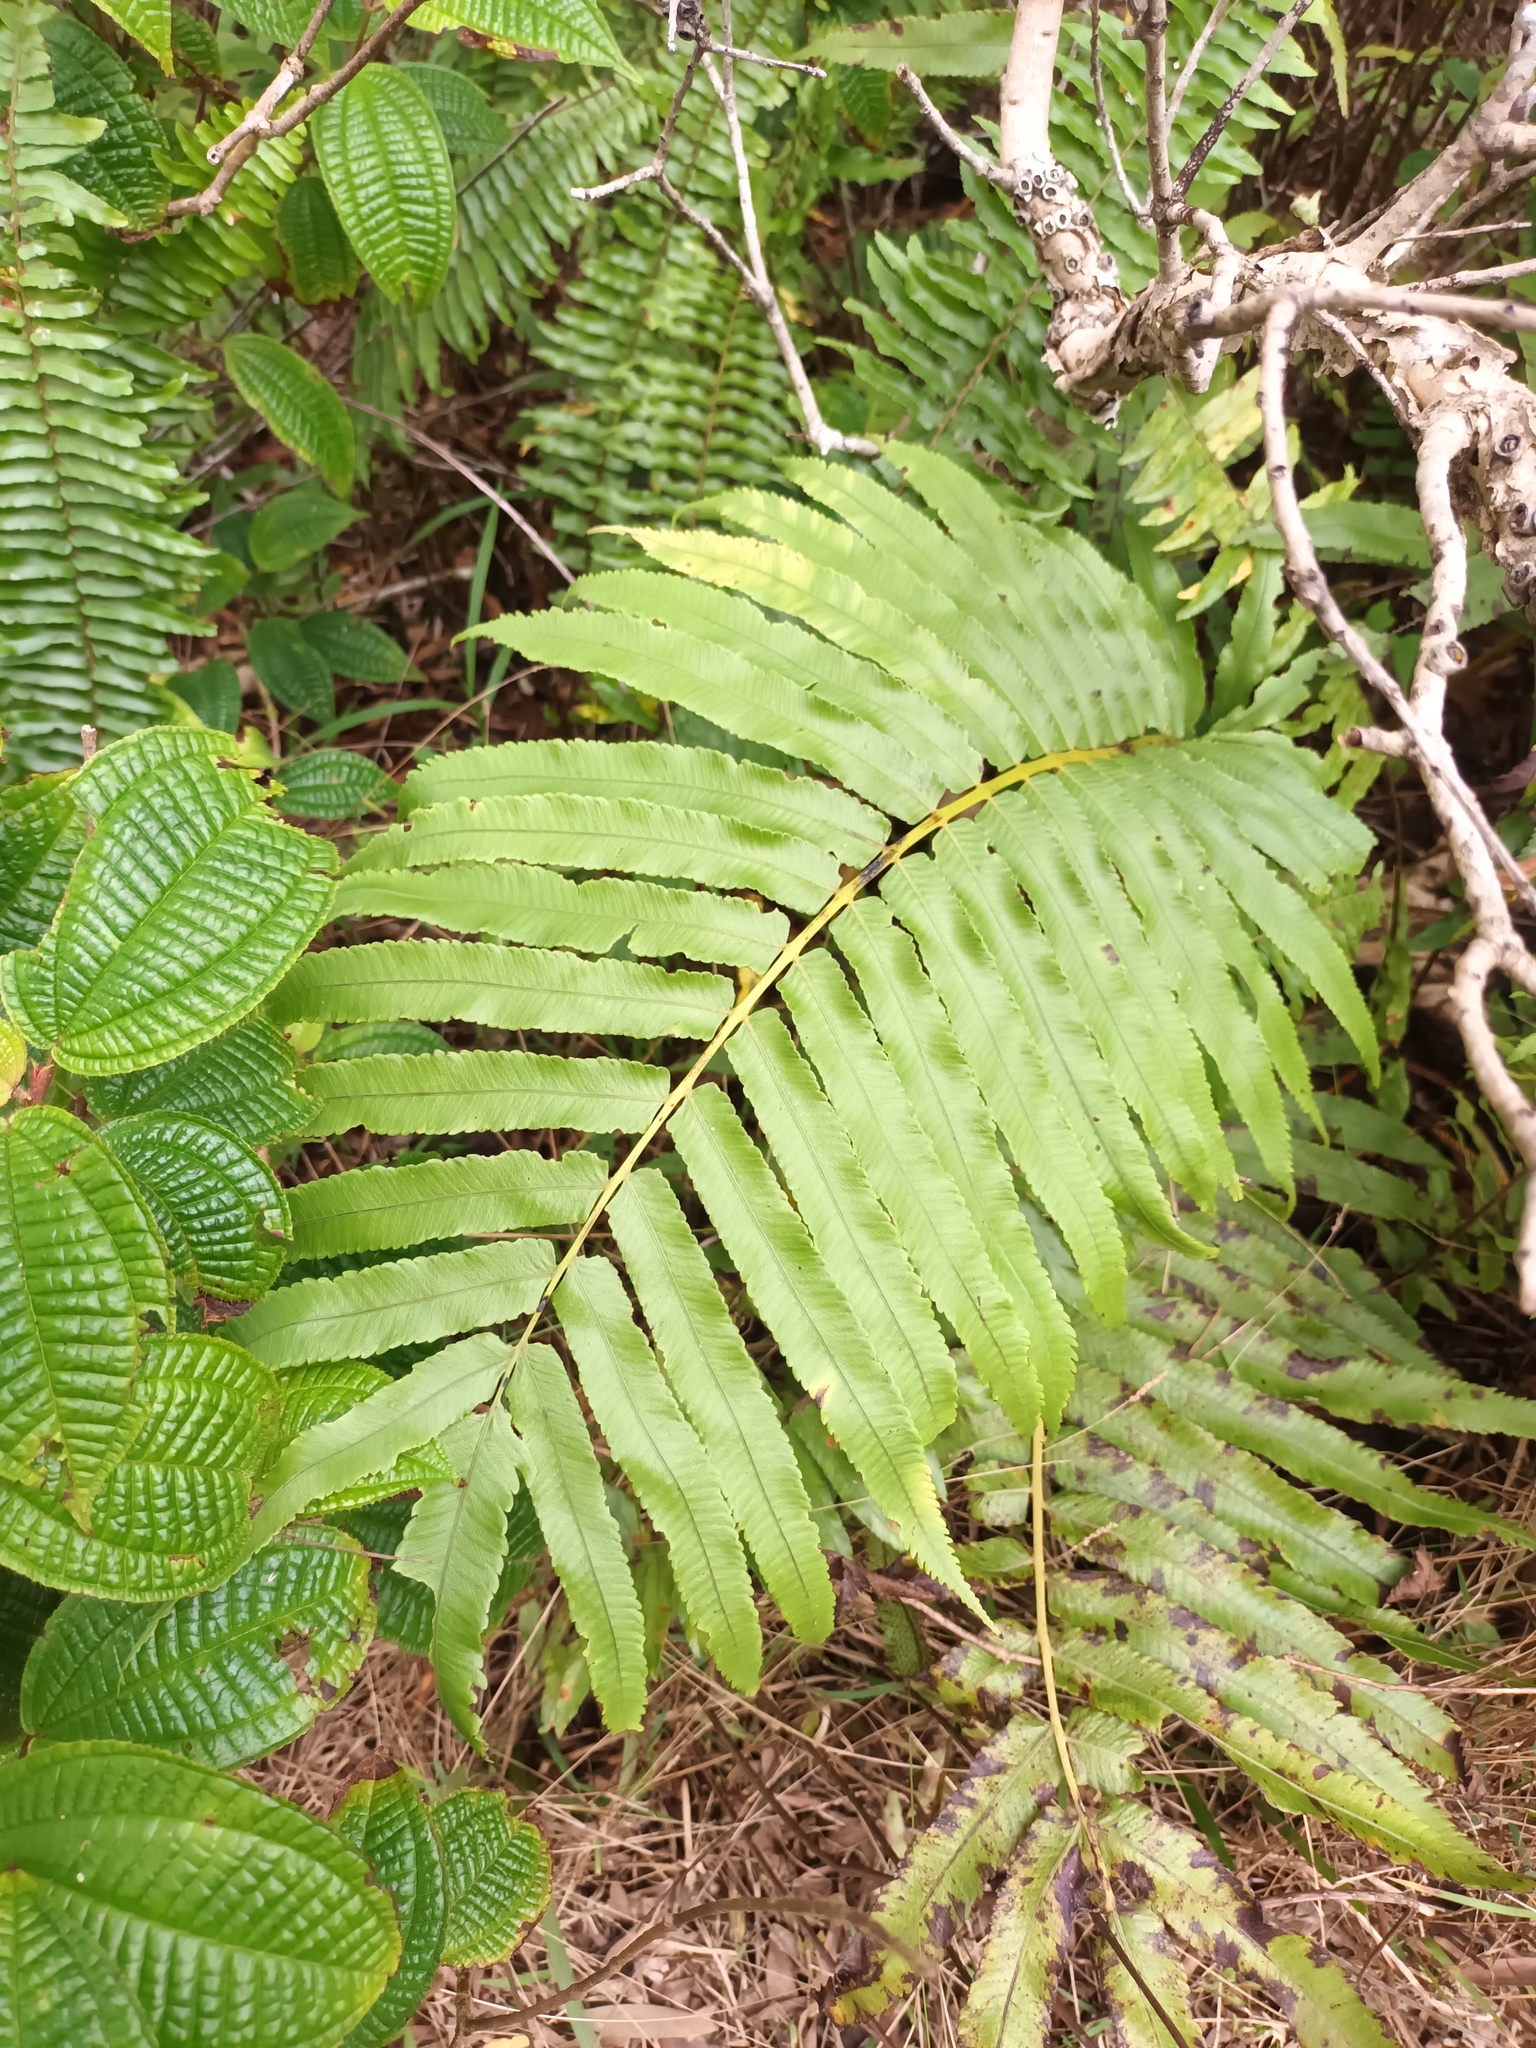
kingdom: Plantae
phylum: Tracheophyta
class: Polypodiopsida
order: Polypodiales
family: Thelypteridaceae
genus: Menisciopsis
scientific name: Menisciopsis cyatheoides
